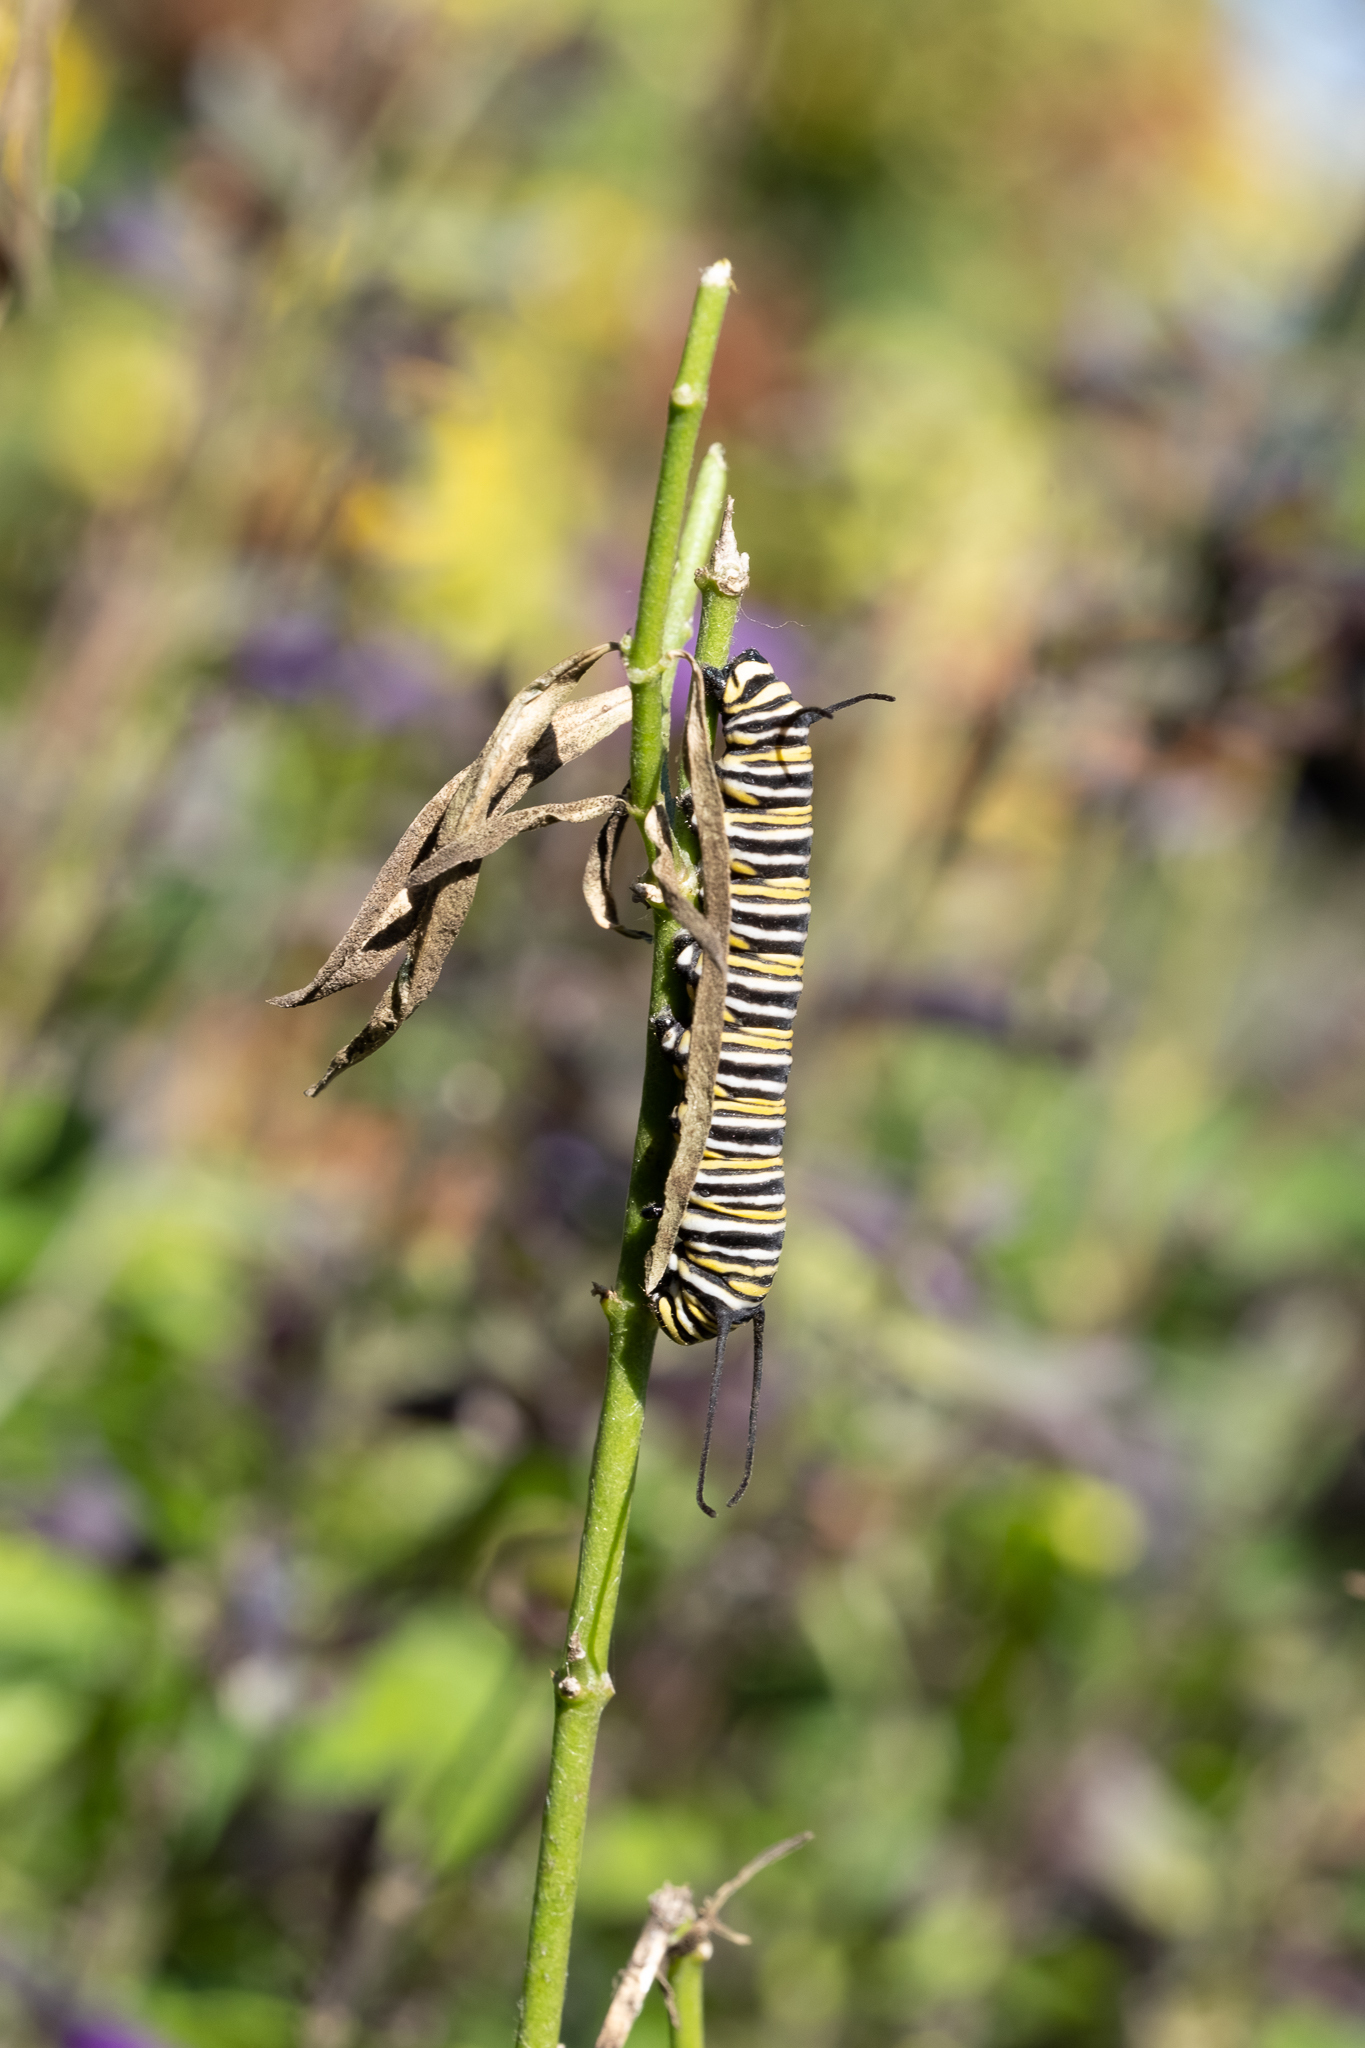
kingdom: Animalia
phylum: Arthropoda
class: Insecta
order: Lepidoptera
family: Nymphalidae
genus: Danaus
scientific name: Danaus plexippus
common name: Monarch
